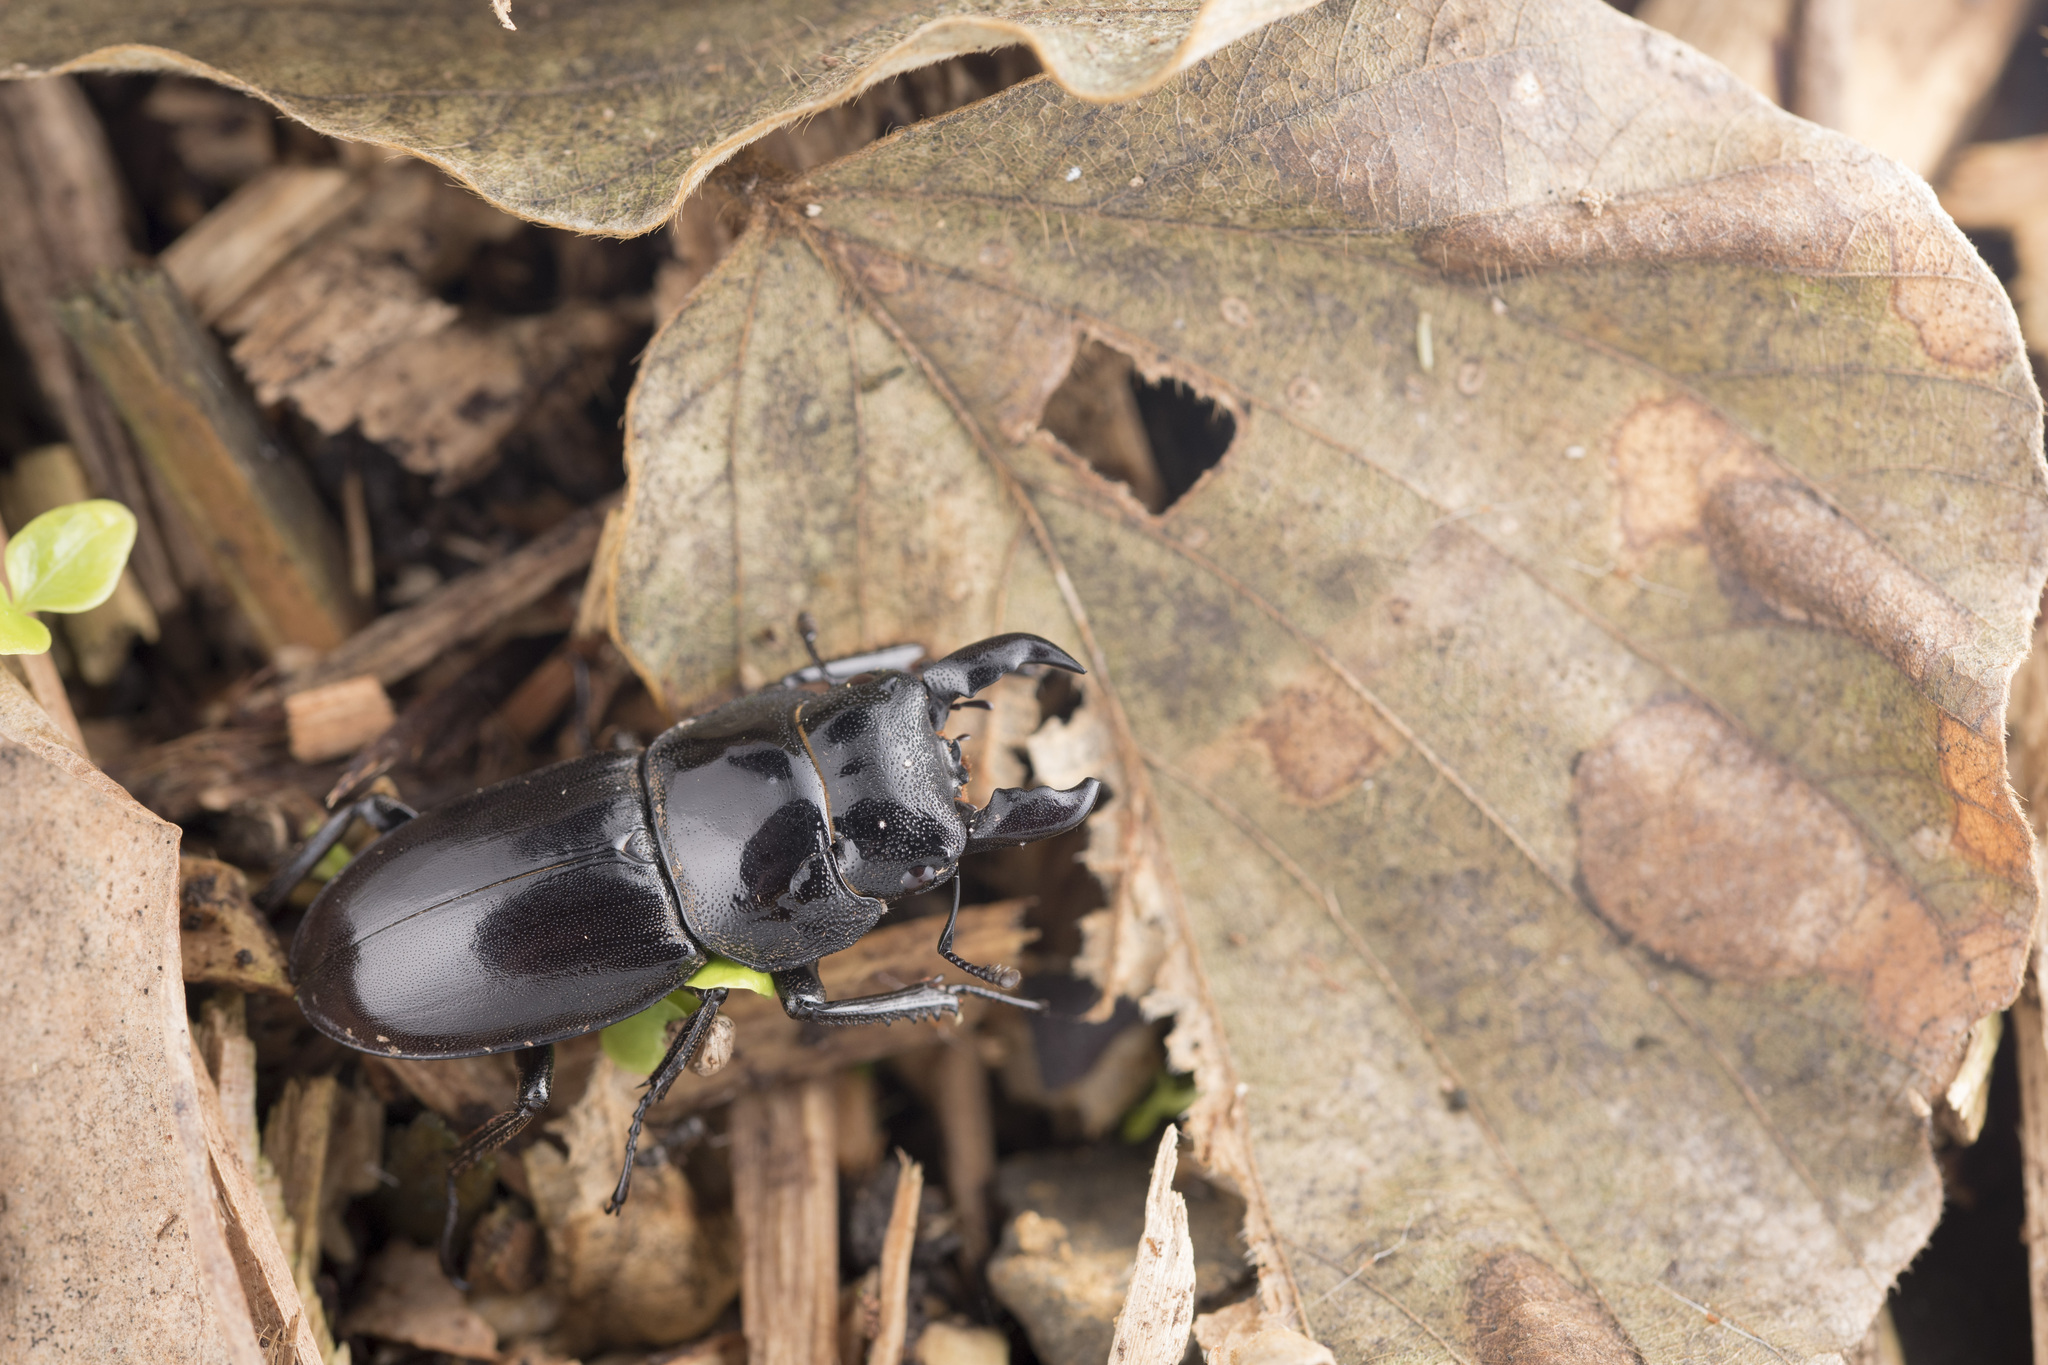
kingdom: Animalia
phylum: Arthropoda
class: Insecta
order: Coleoptera
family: Lucanidae
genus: Serrognathus
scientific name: Serrognathus titanus
